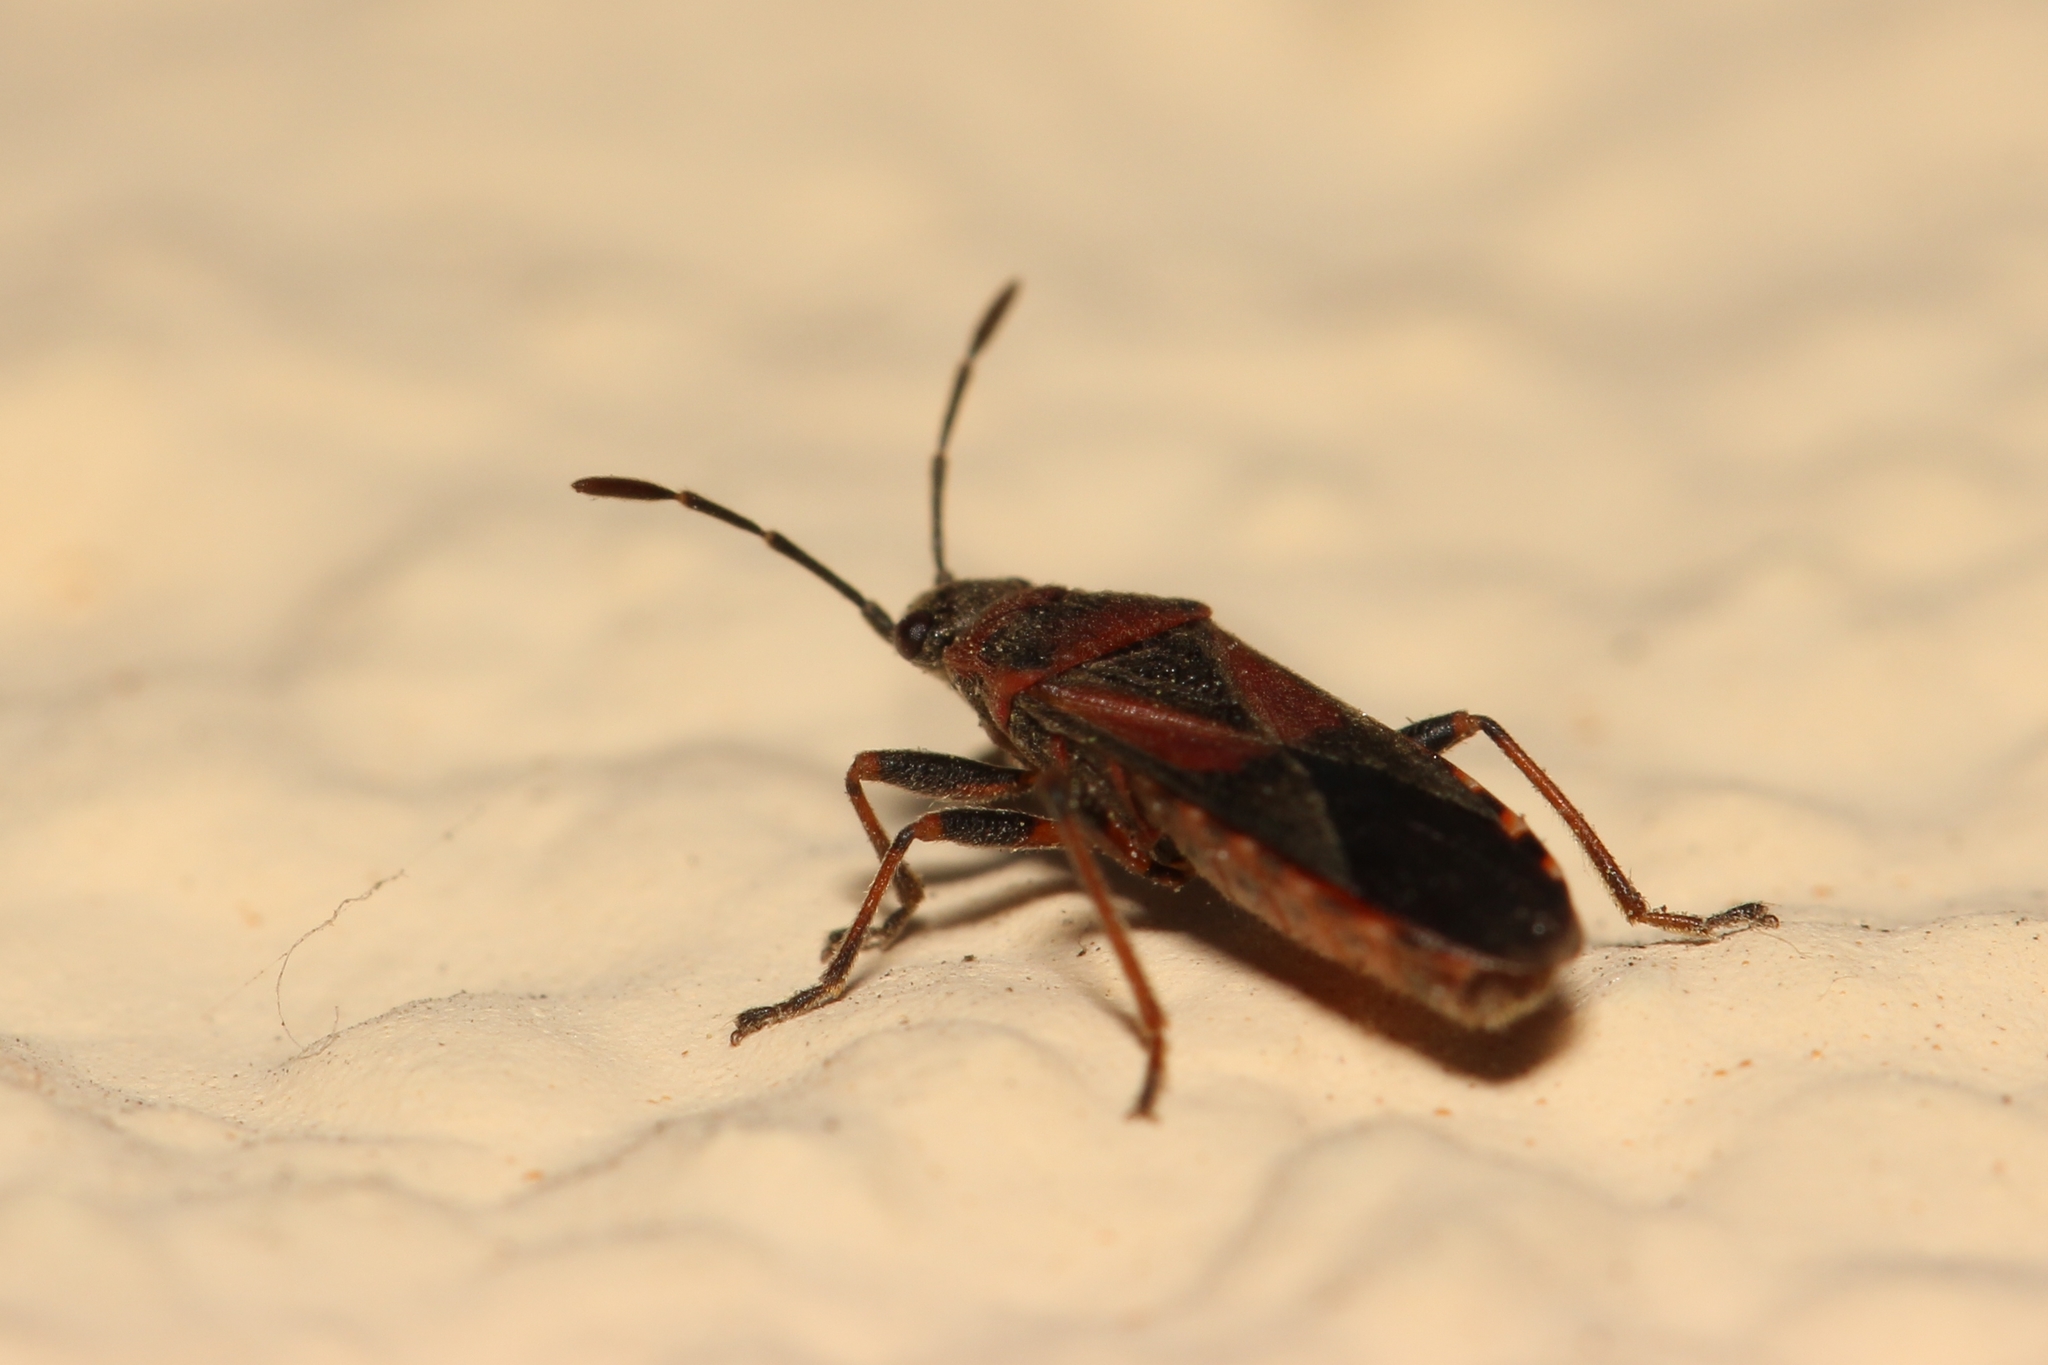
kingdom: Animalia
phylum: Arthropoda
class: Insecta
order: Hemiptera
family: Lygaeidae
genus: Arocatus
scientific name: Arocatus melanocephalus
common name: Lygaeid bug
